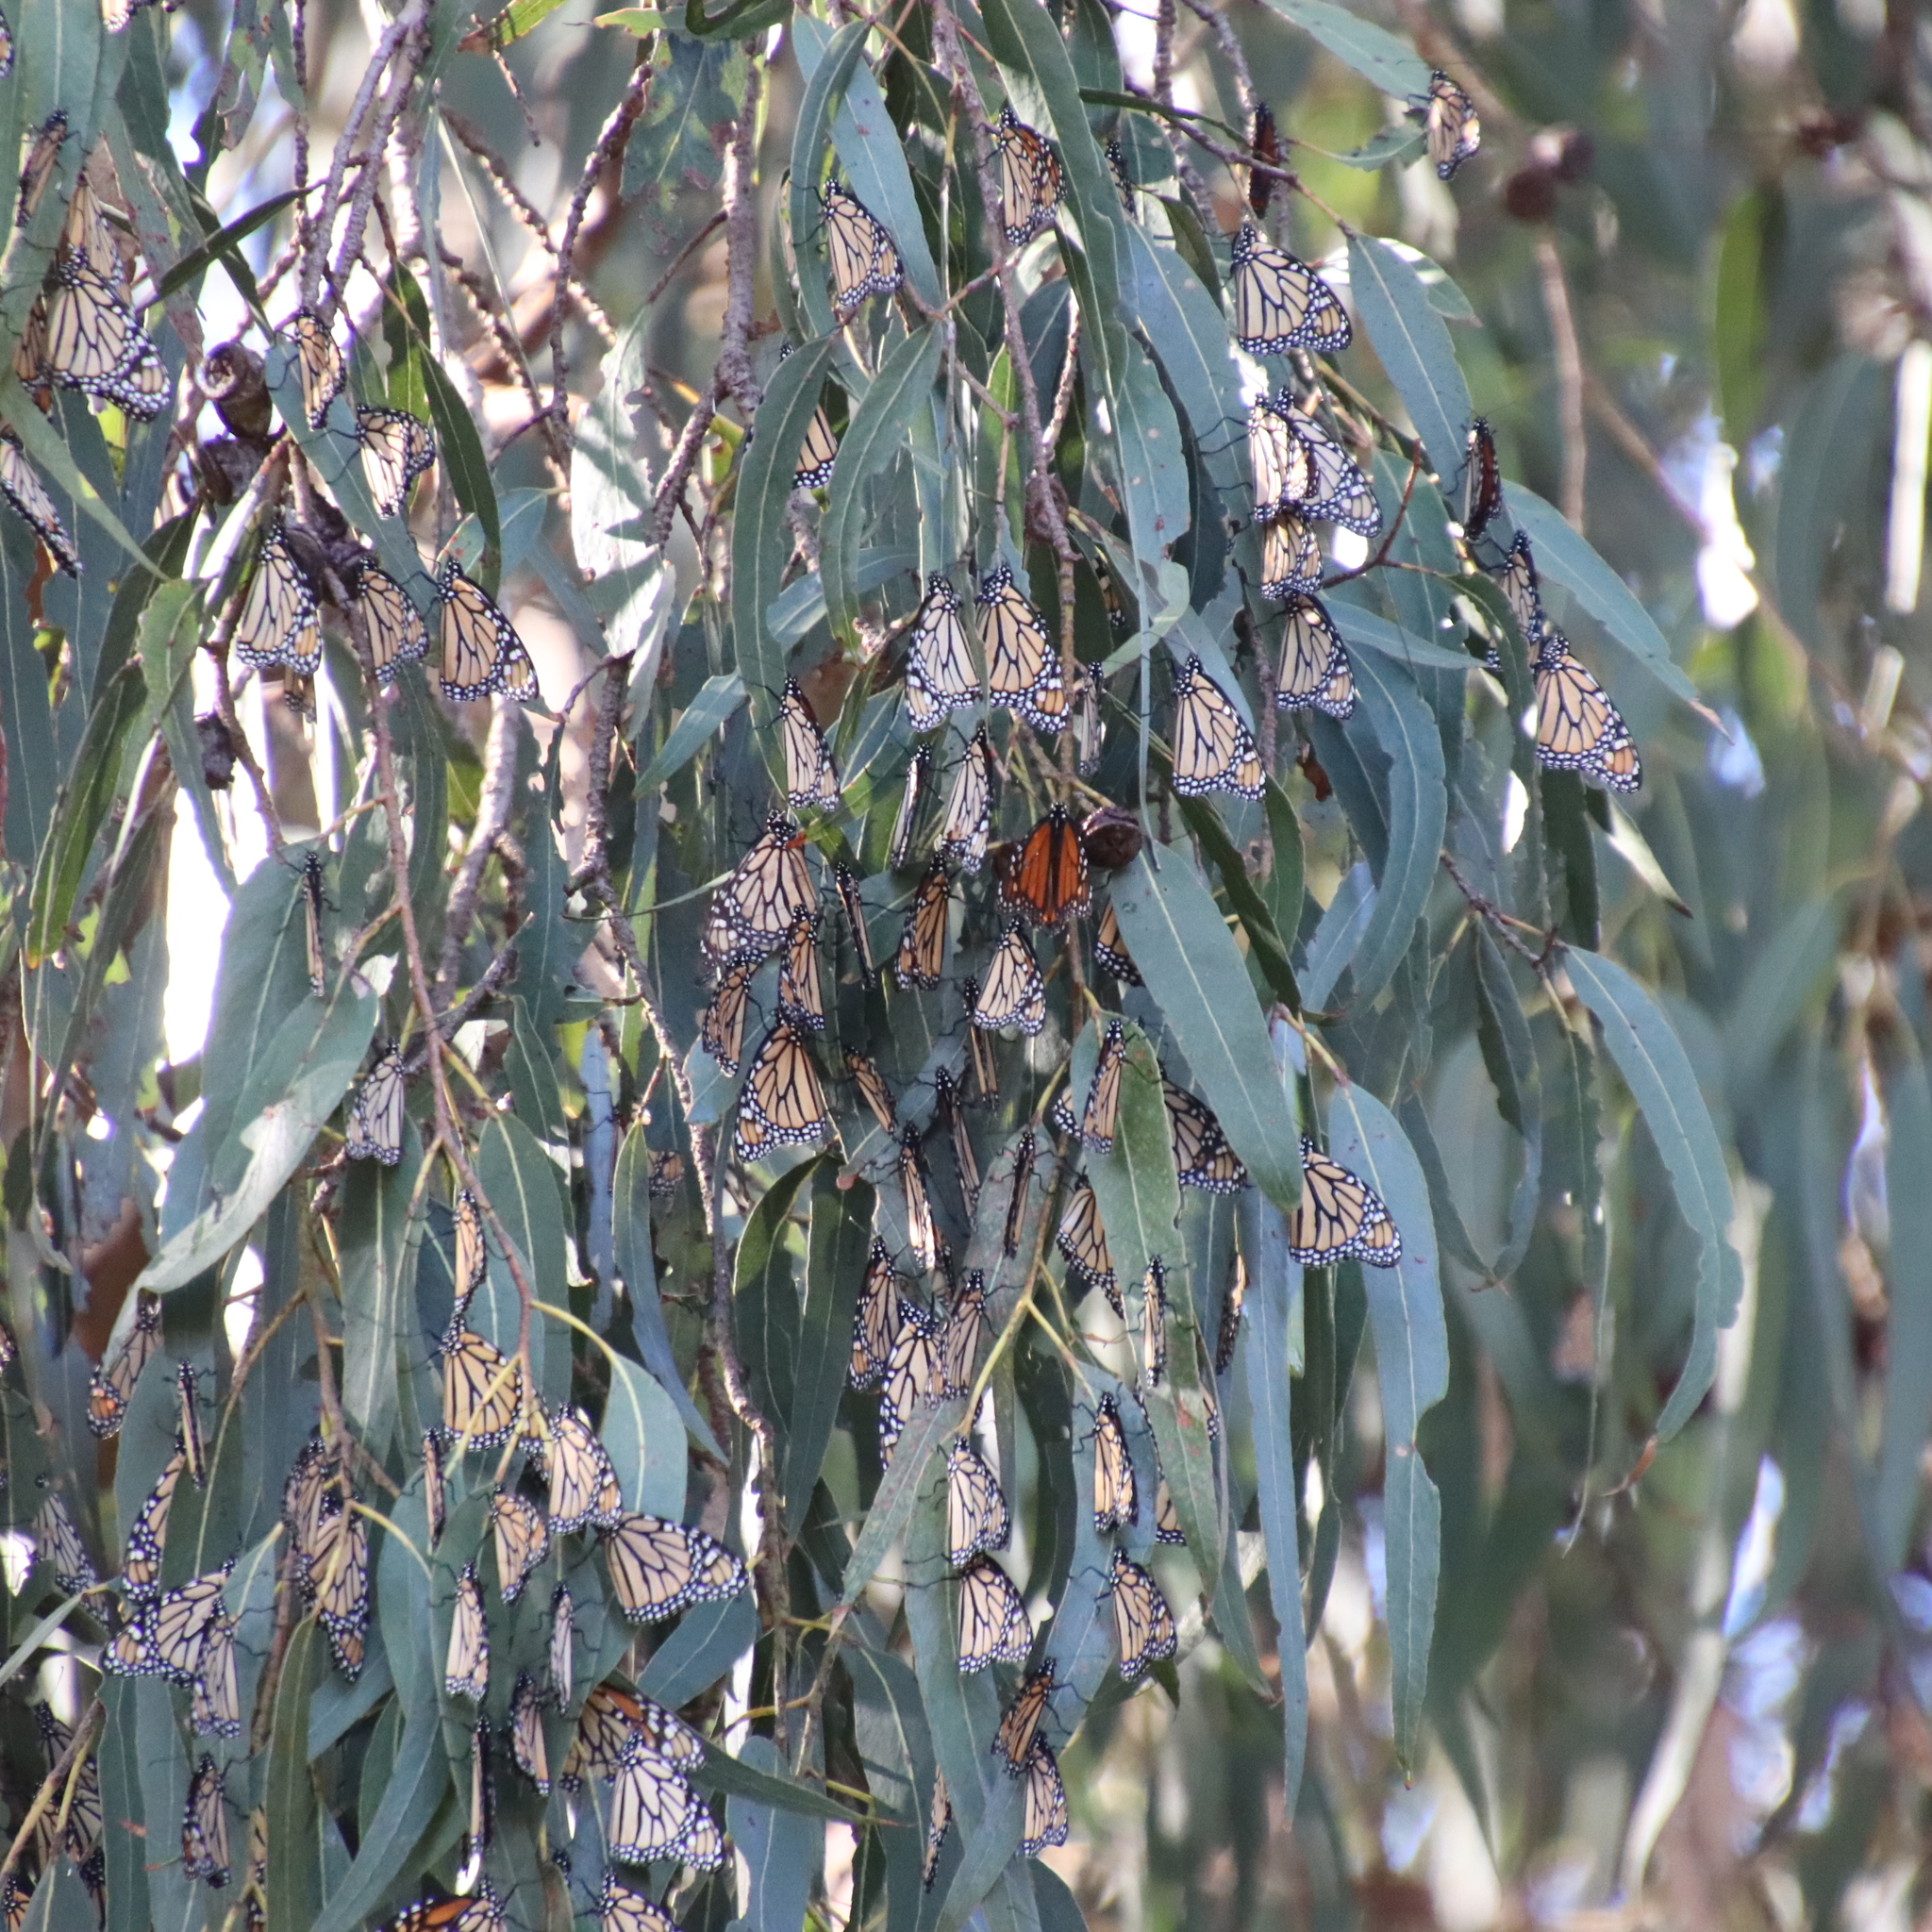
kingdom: Animalia
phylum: Arthropoda
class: Insecta
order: Lepidoptera
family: Nymphalidae
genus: Danaus
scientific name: Danaus plexippus
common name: Monarch
